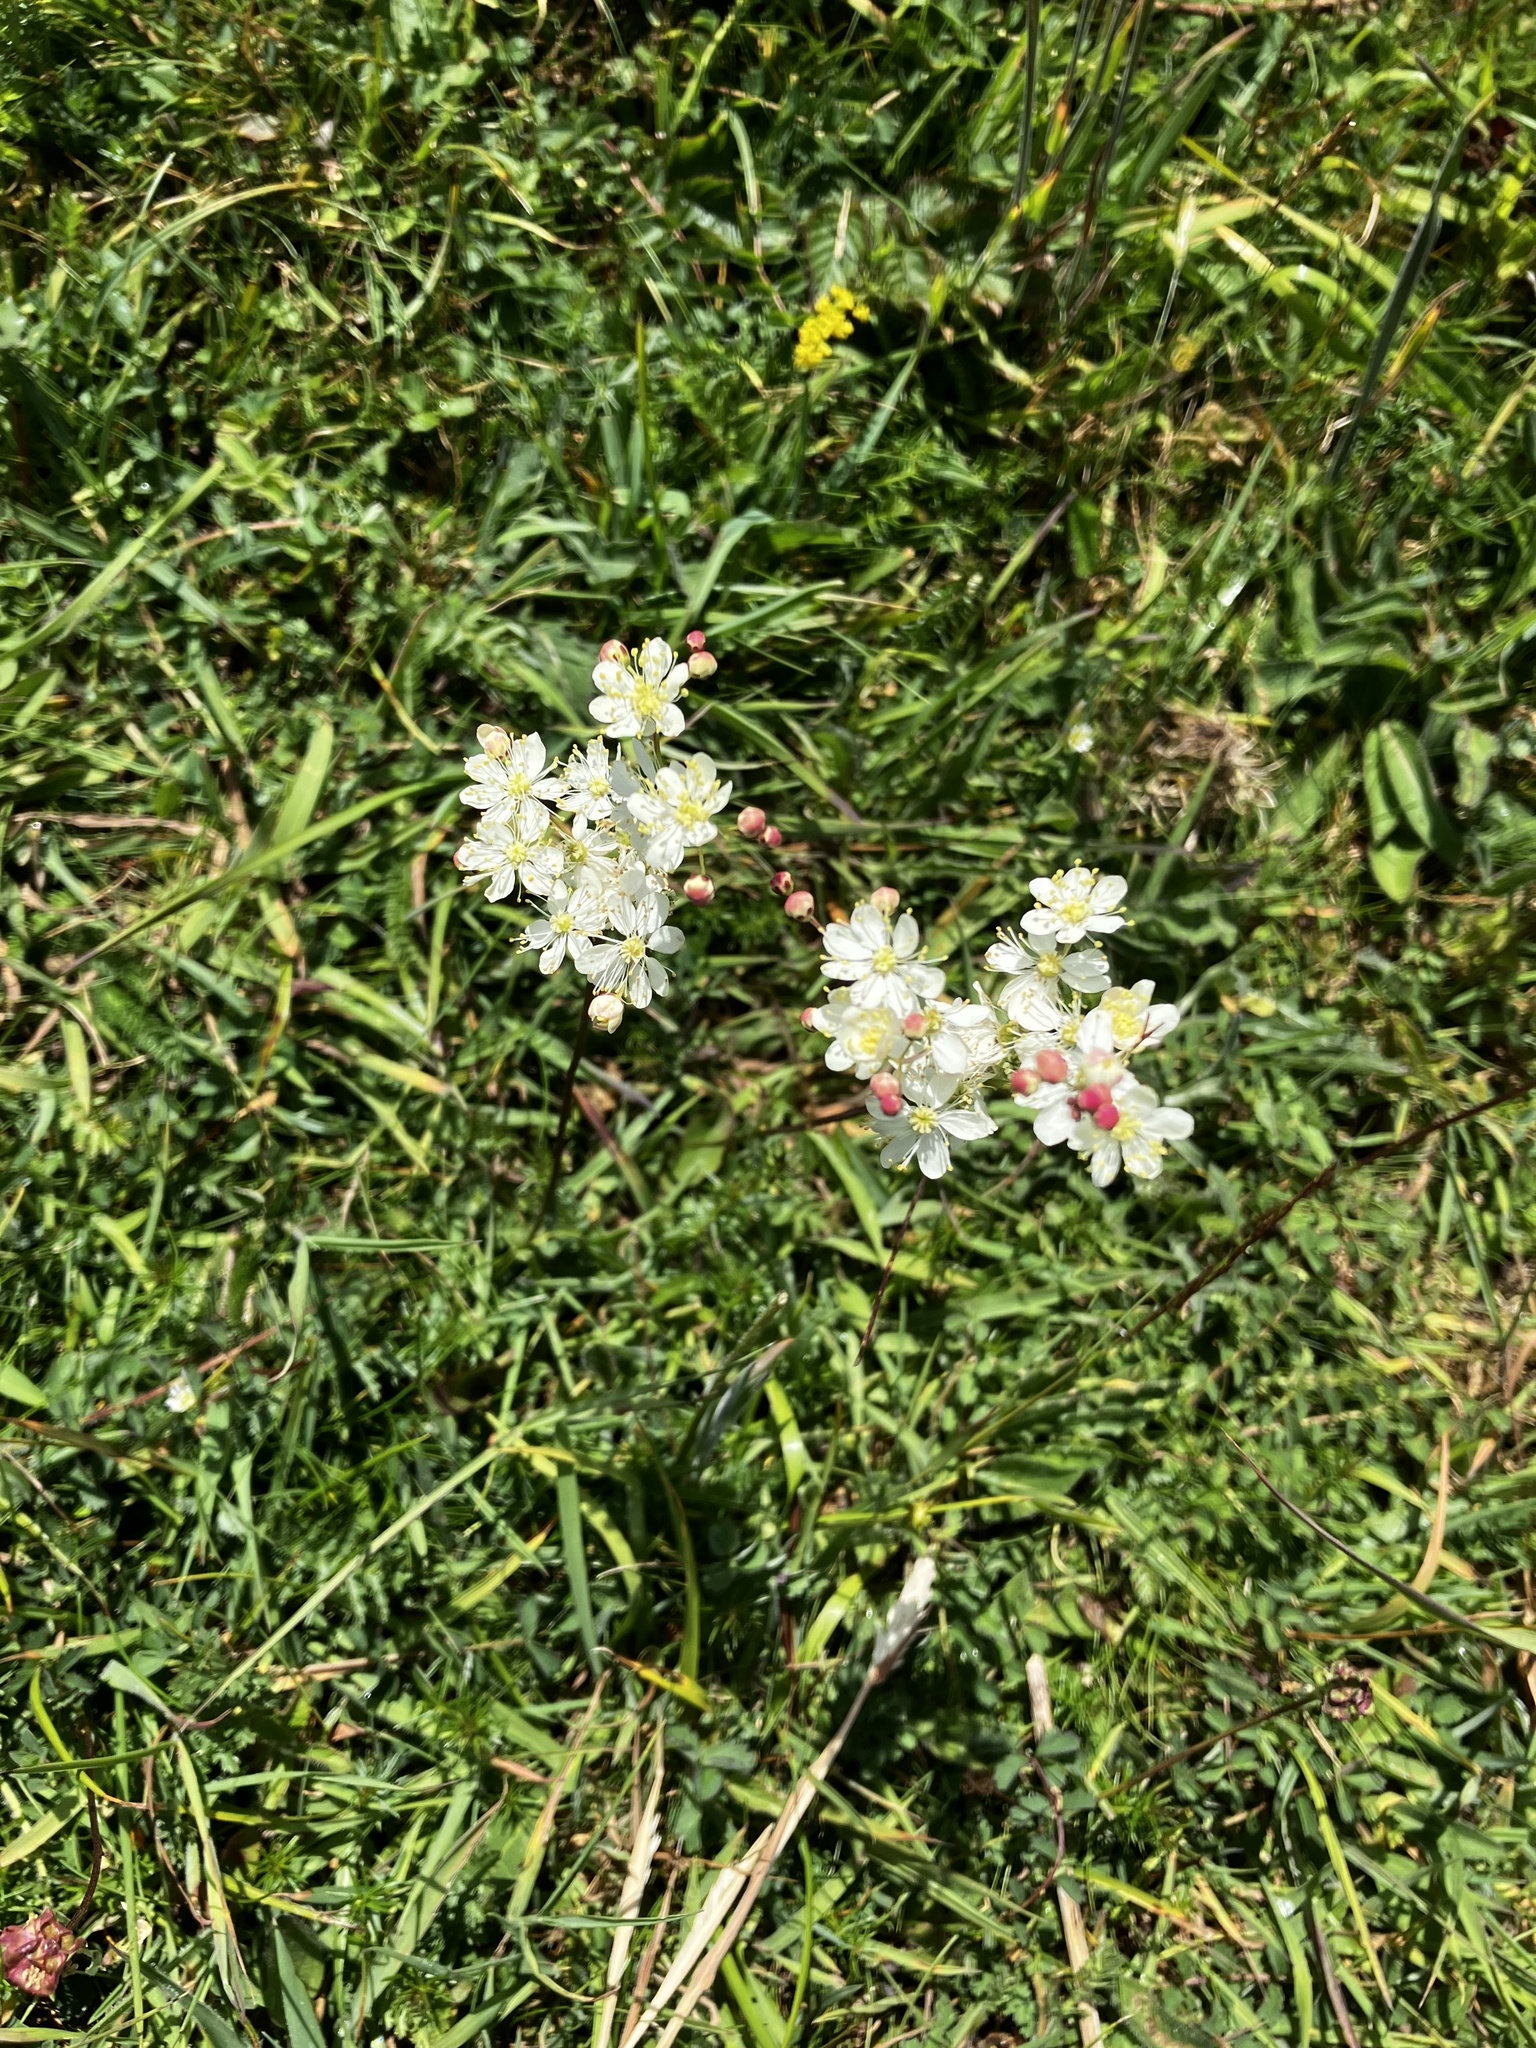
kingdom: Plantae
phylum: Tracheophyta
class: Magnoliopsida
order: Rosales
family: Rosaceae
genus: Filipendula
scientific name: Filipendula vulgaris
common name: Dropwort
